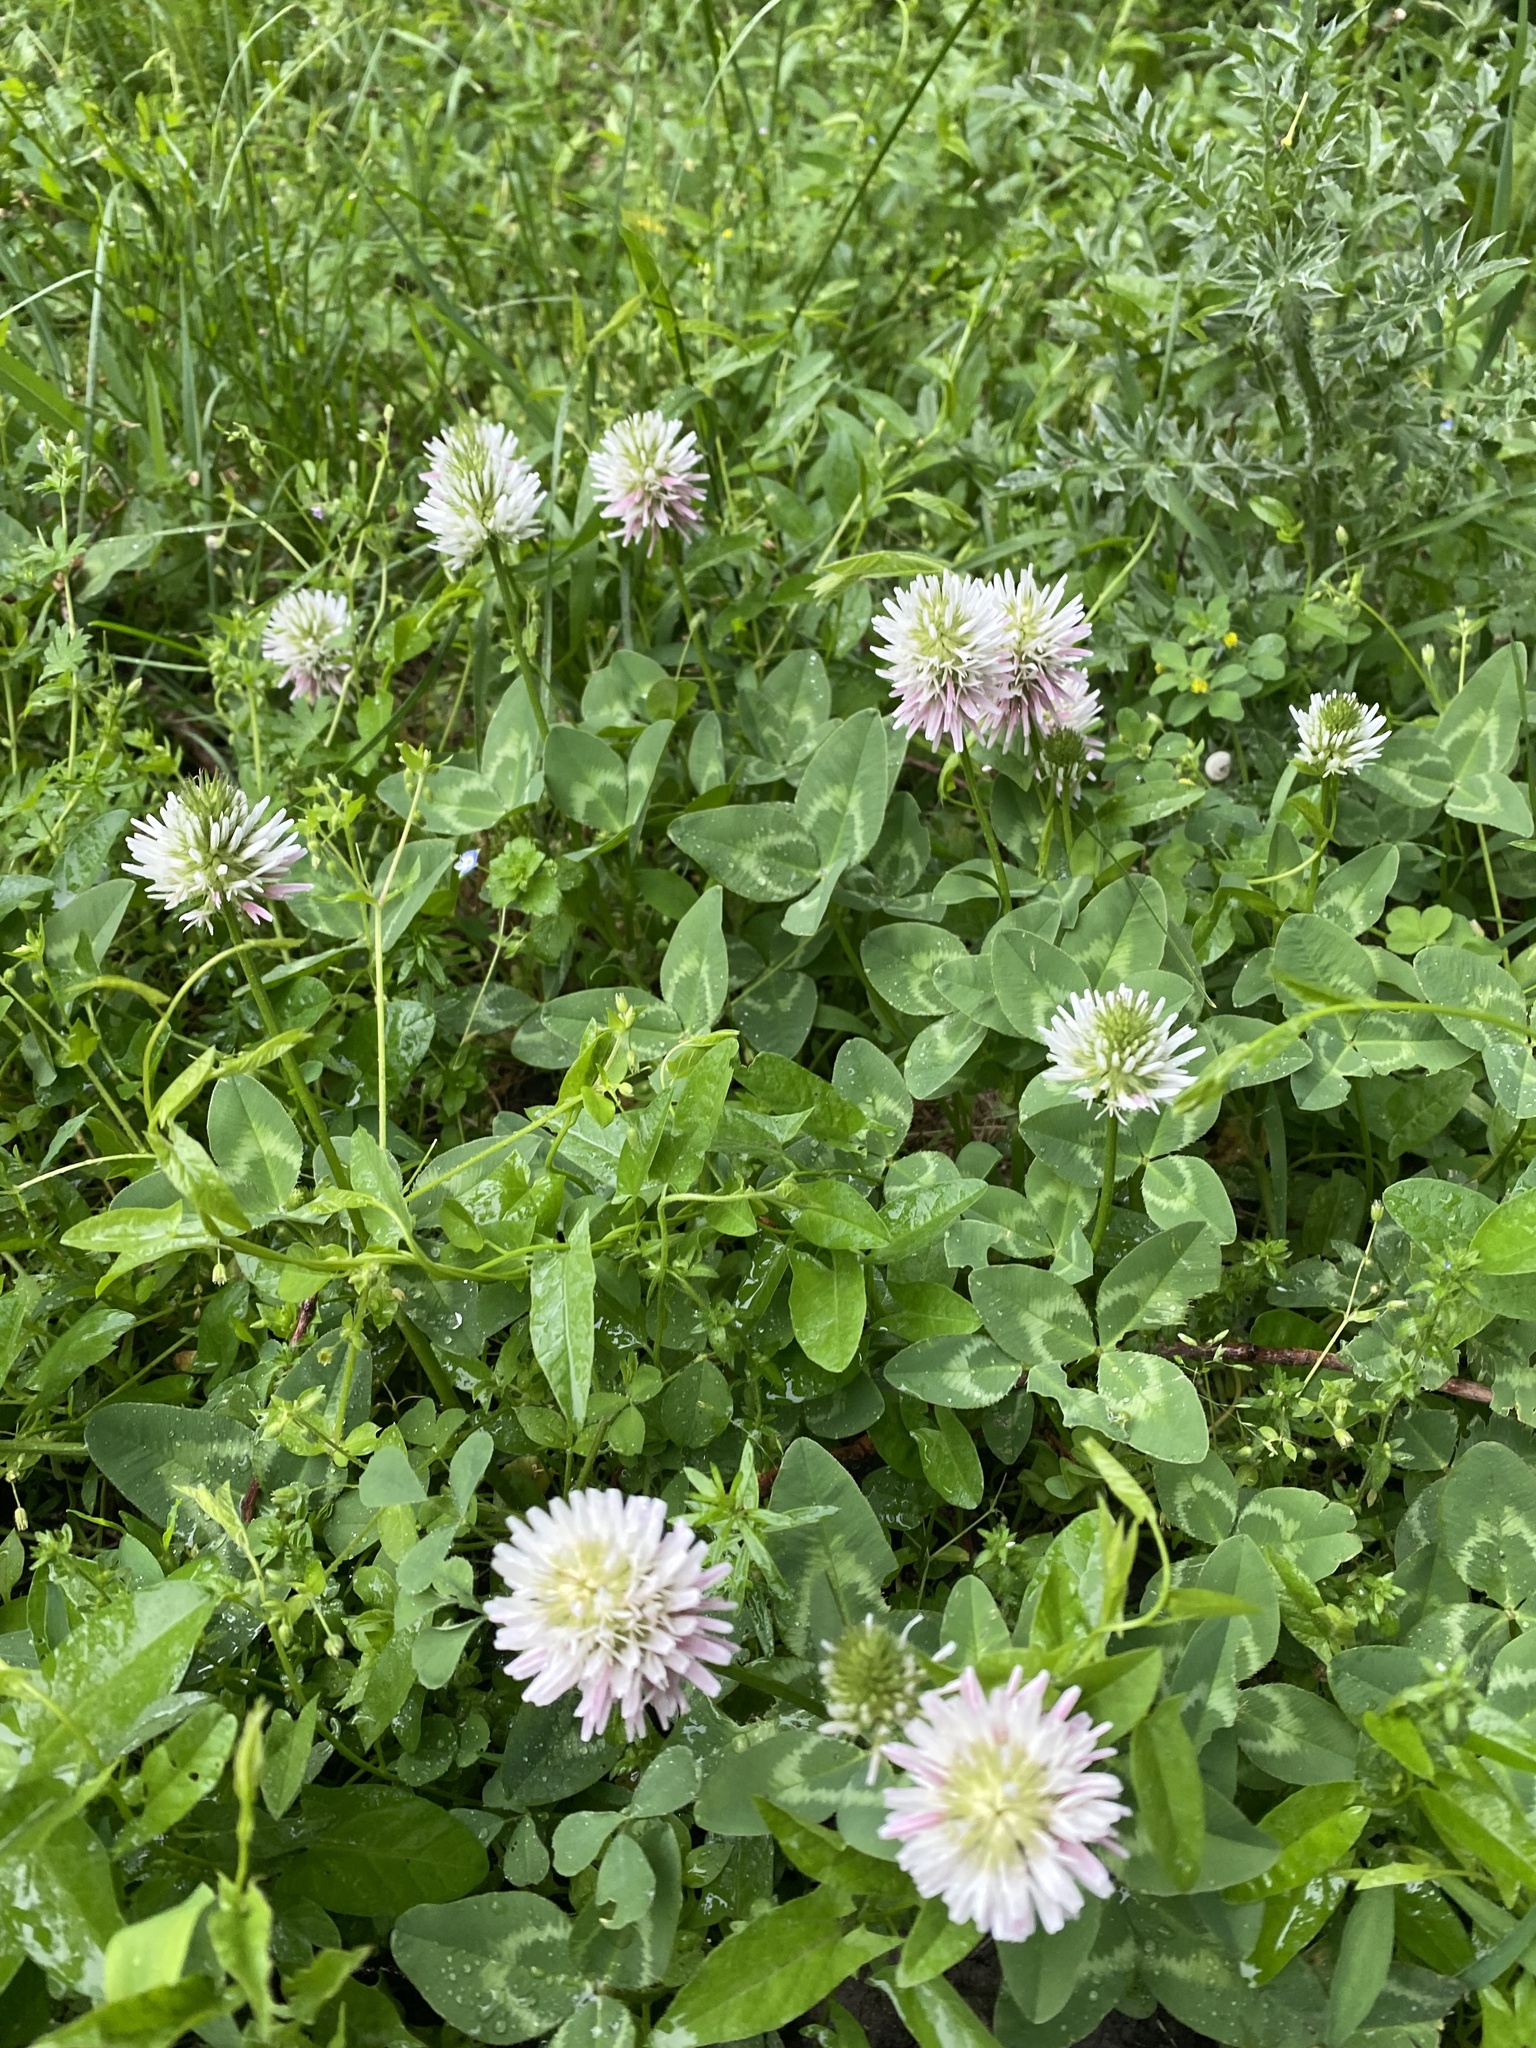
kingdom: Plantae
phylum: Tracheophyta
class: Magnoliopsida
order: Fabales
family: Fabaceae
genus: Trifolium
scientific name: Trifolium ambiguum
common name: Kura clover
